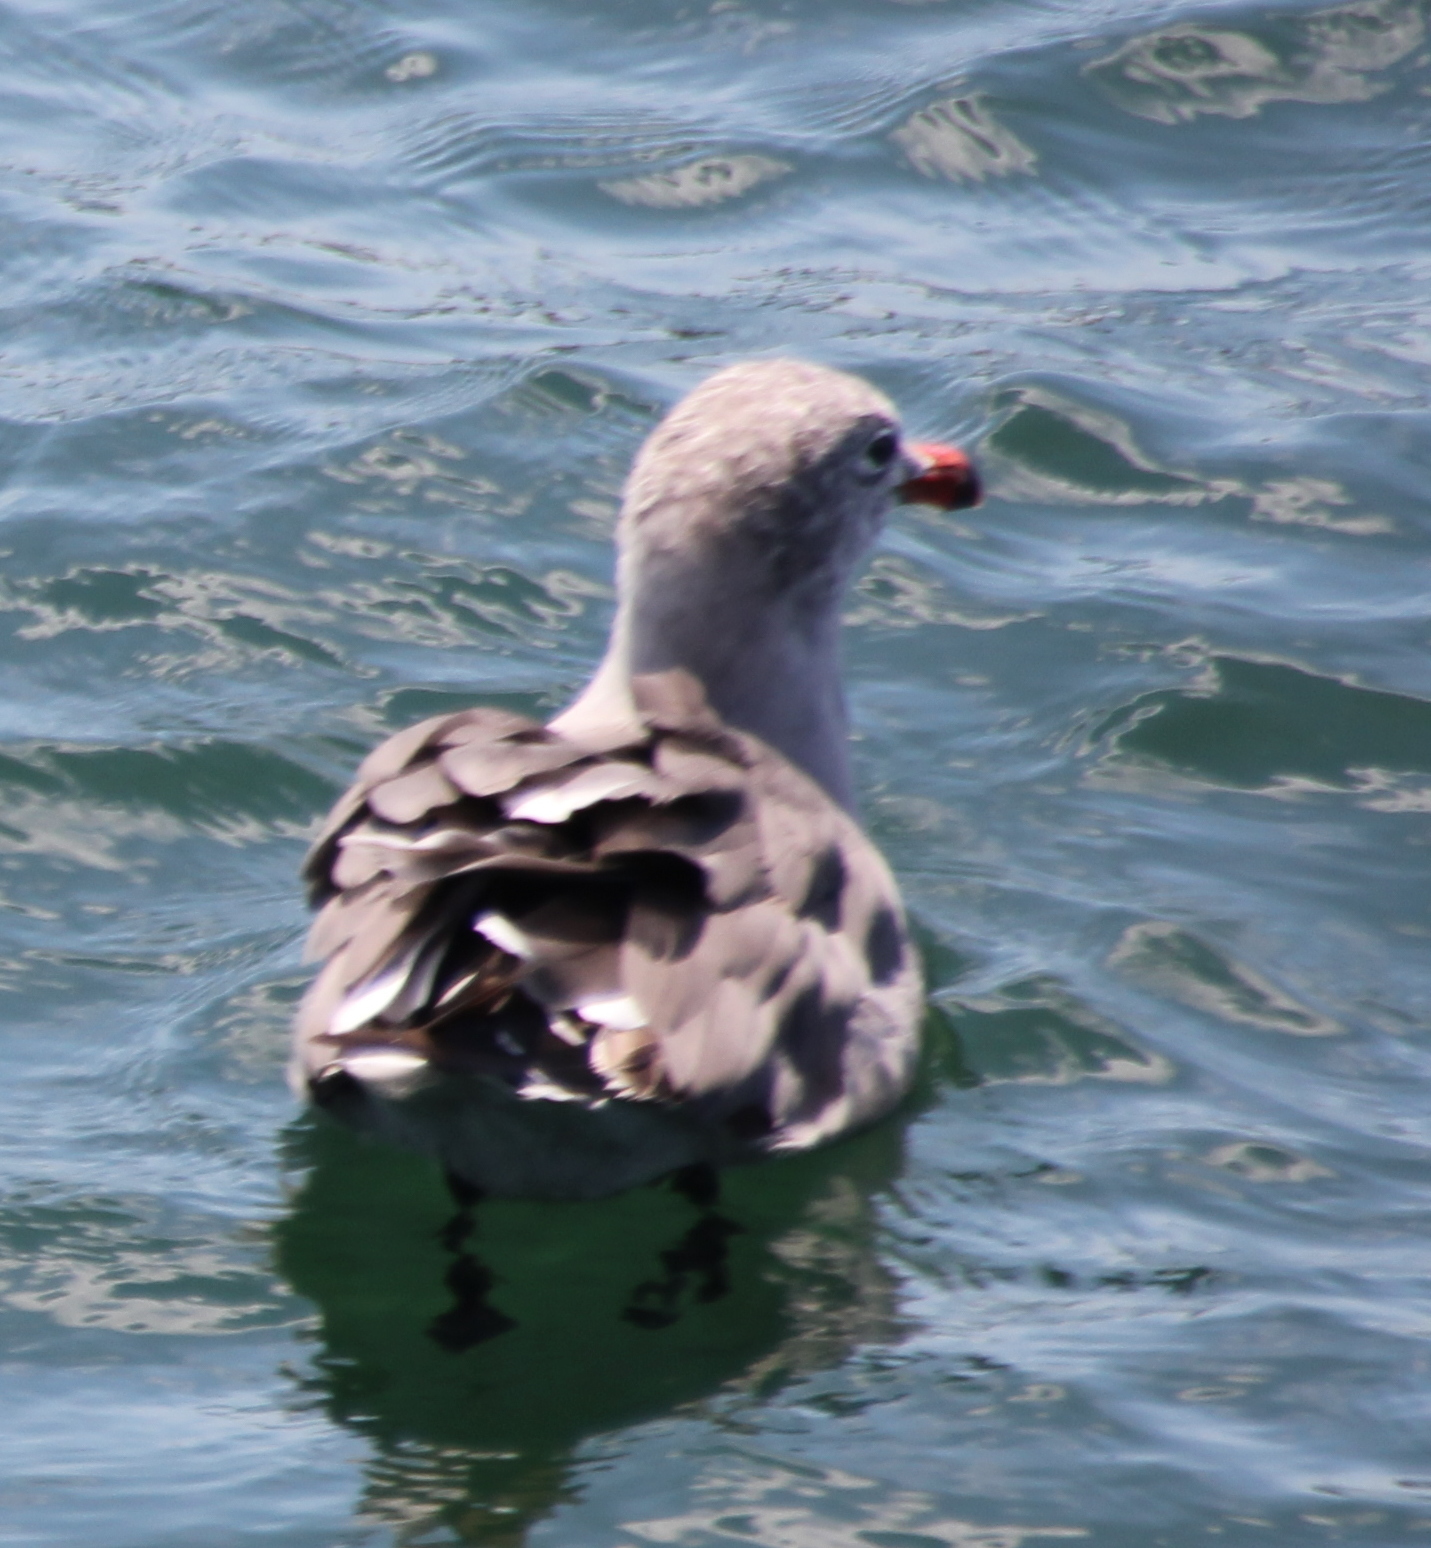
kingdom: Animalia
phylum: Chordata
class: Aves
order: Charadriiformes
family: Laridae
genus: Larus
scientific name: Larus heermanni
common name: Heermann's gull
